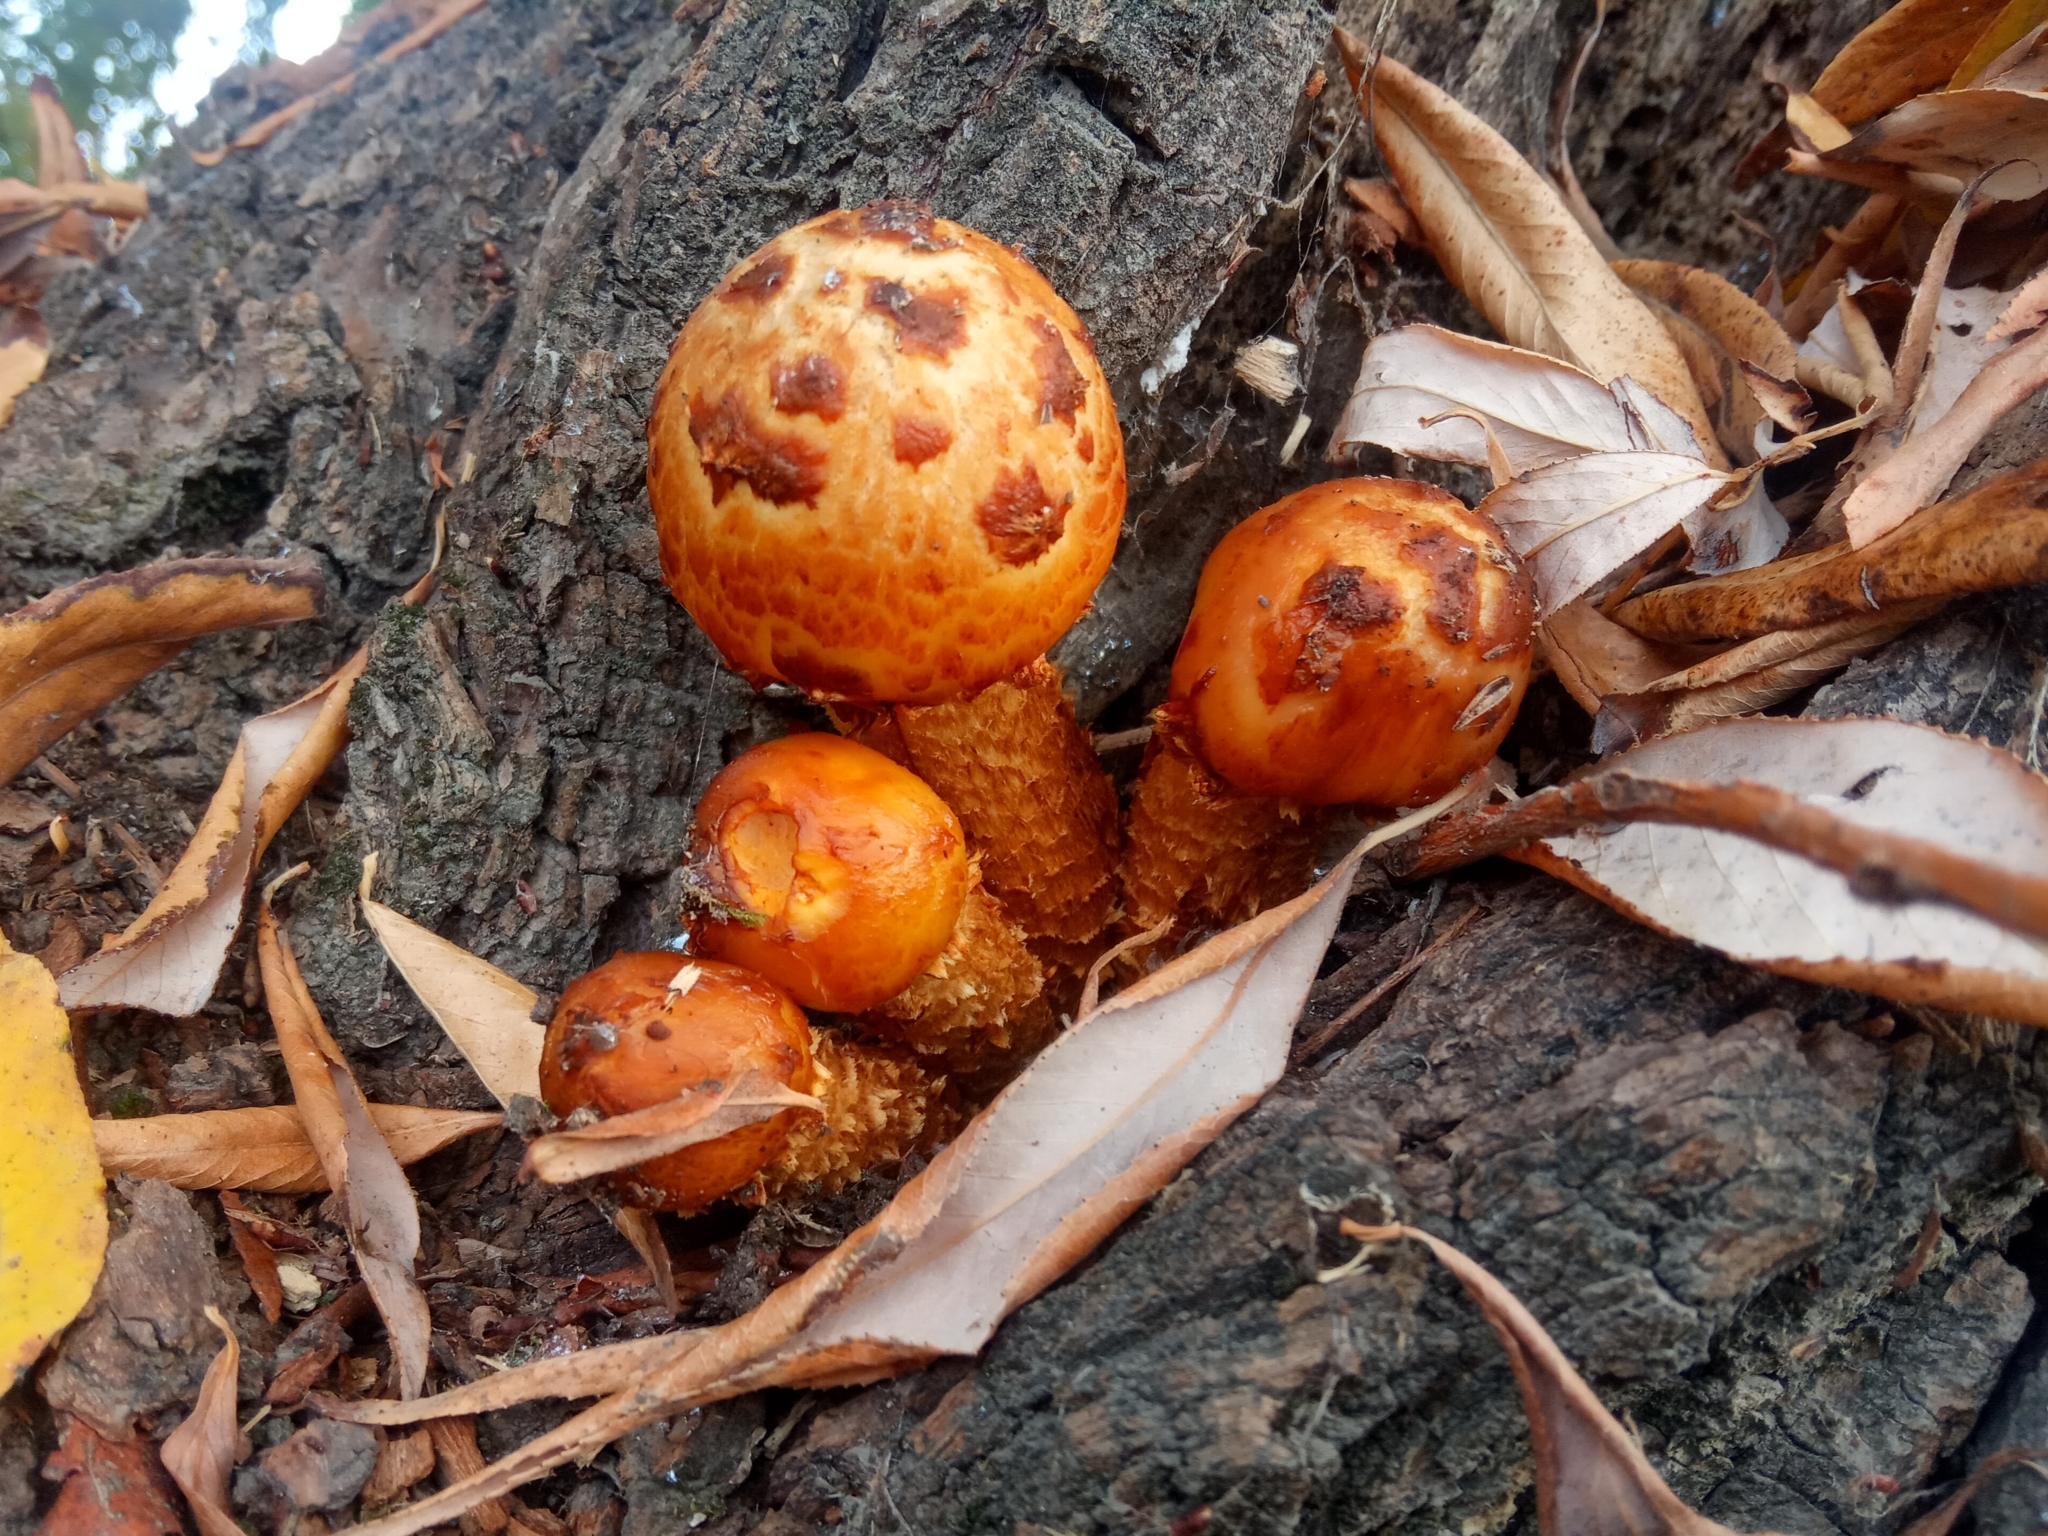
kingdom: Fungi
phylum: Basidiomycota
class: Agaricomycetes
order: Agaricales
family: Strophariaceae
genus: Pholiota
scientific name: Pholiota
